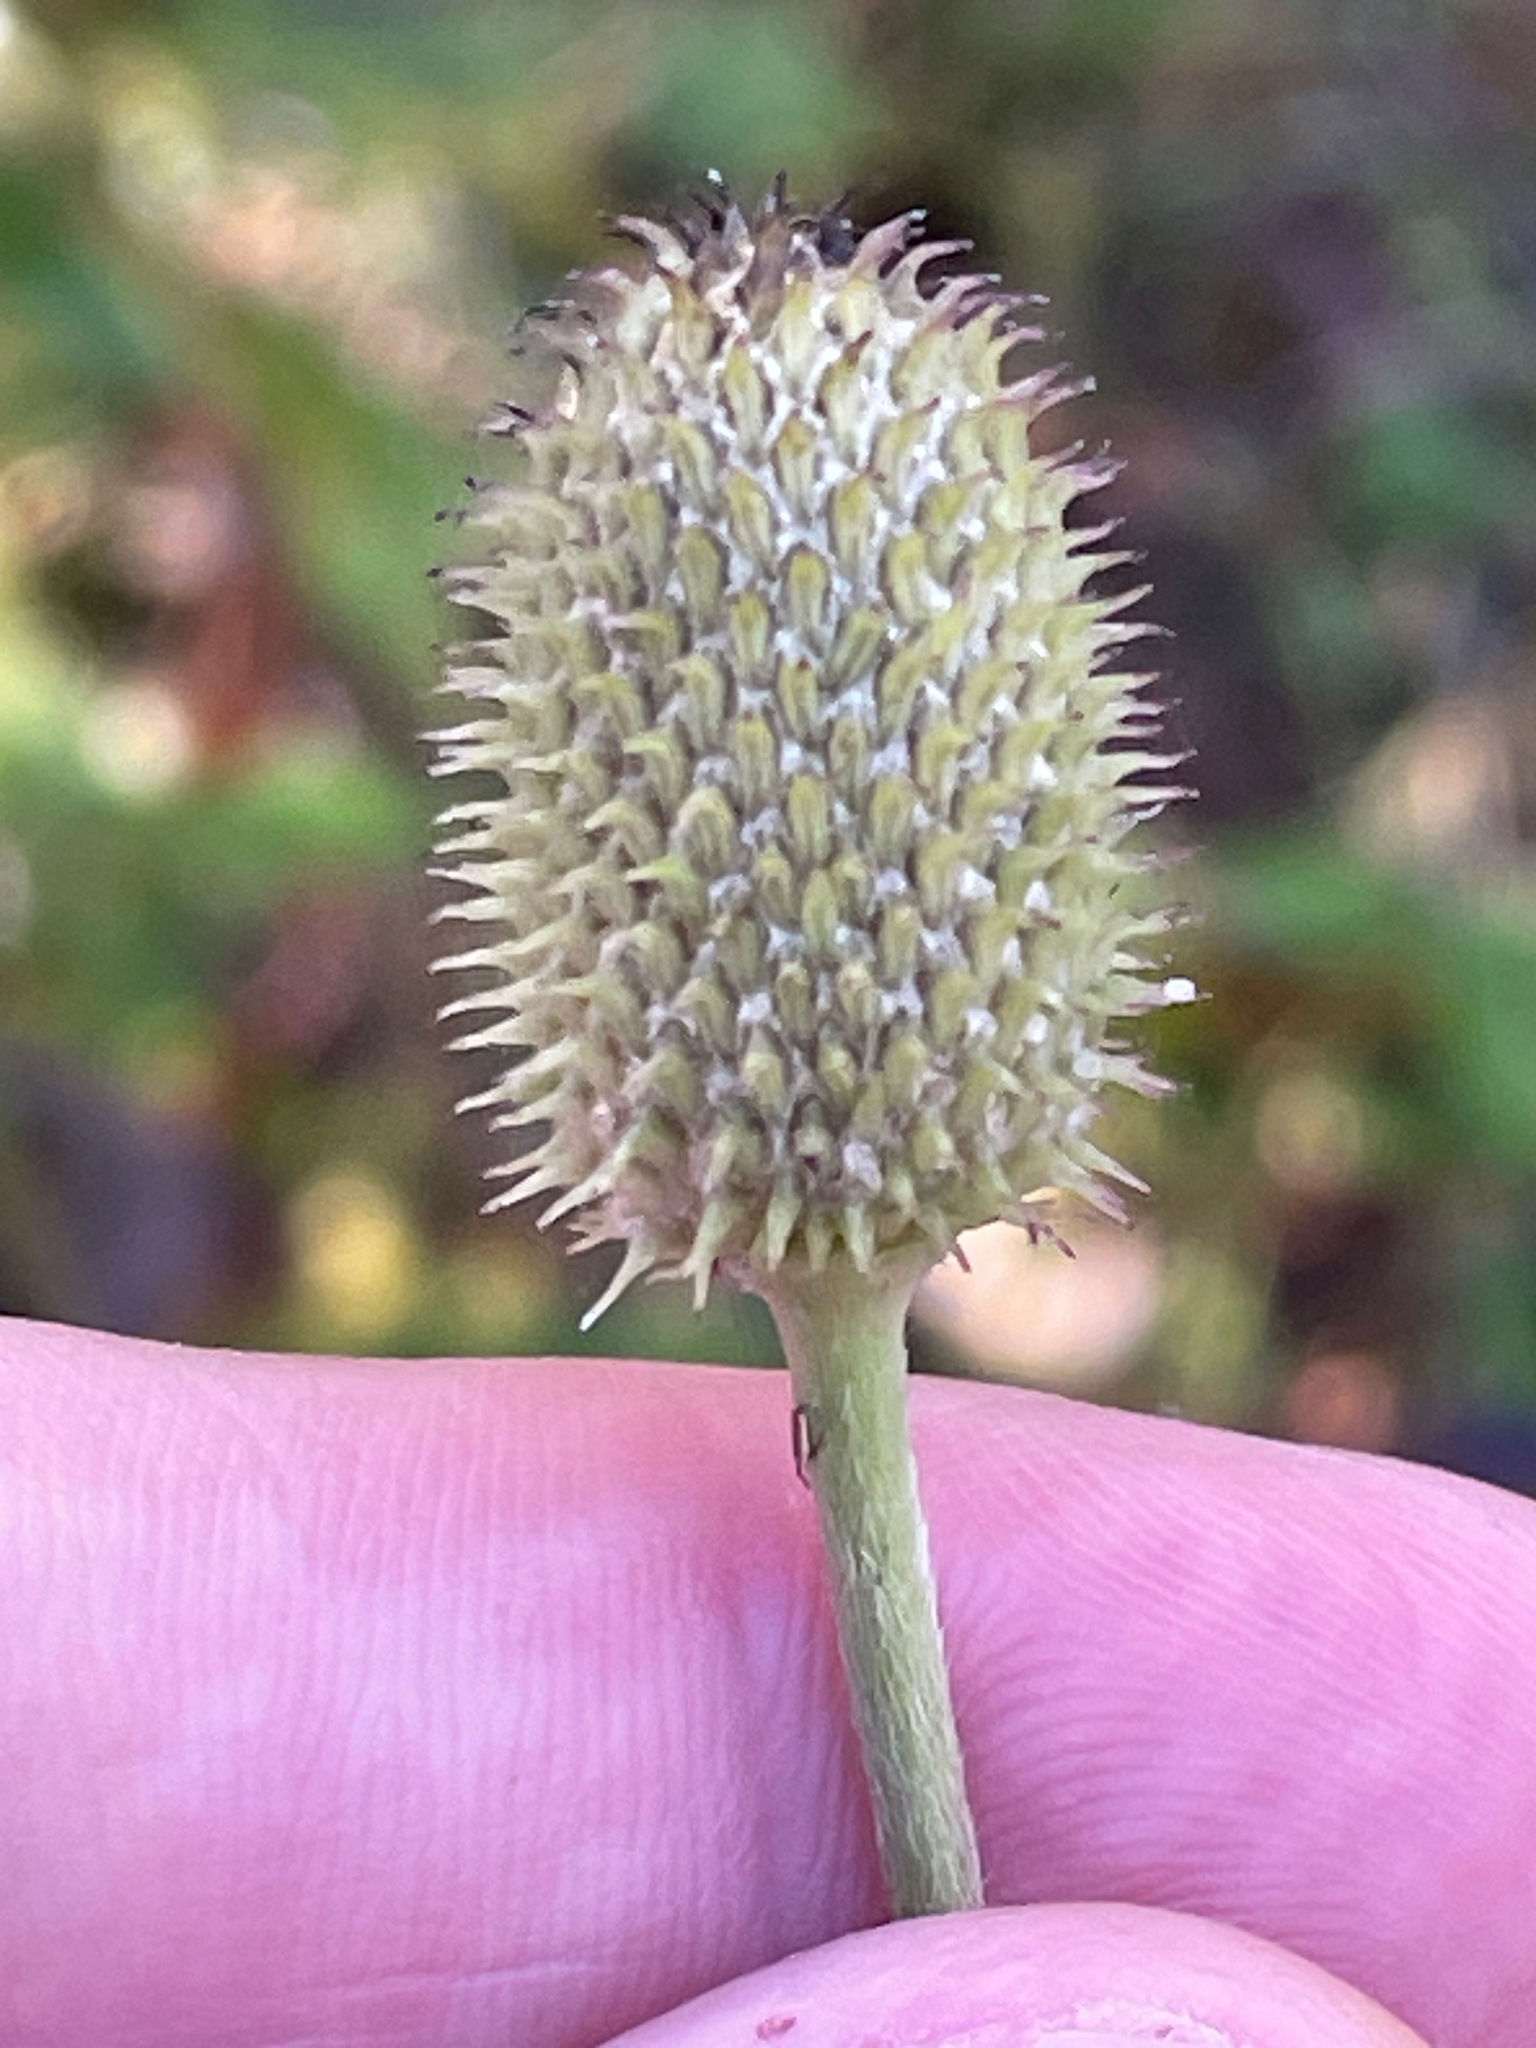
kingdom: Plantae
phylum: Tracheophyta
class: Magnoliopsida
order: Ranunculales
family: Ranunculaceae
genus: Anemone
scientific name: Anemone virginiana
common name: Tall anemone
